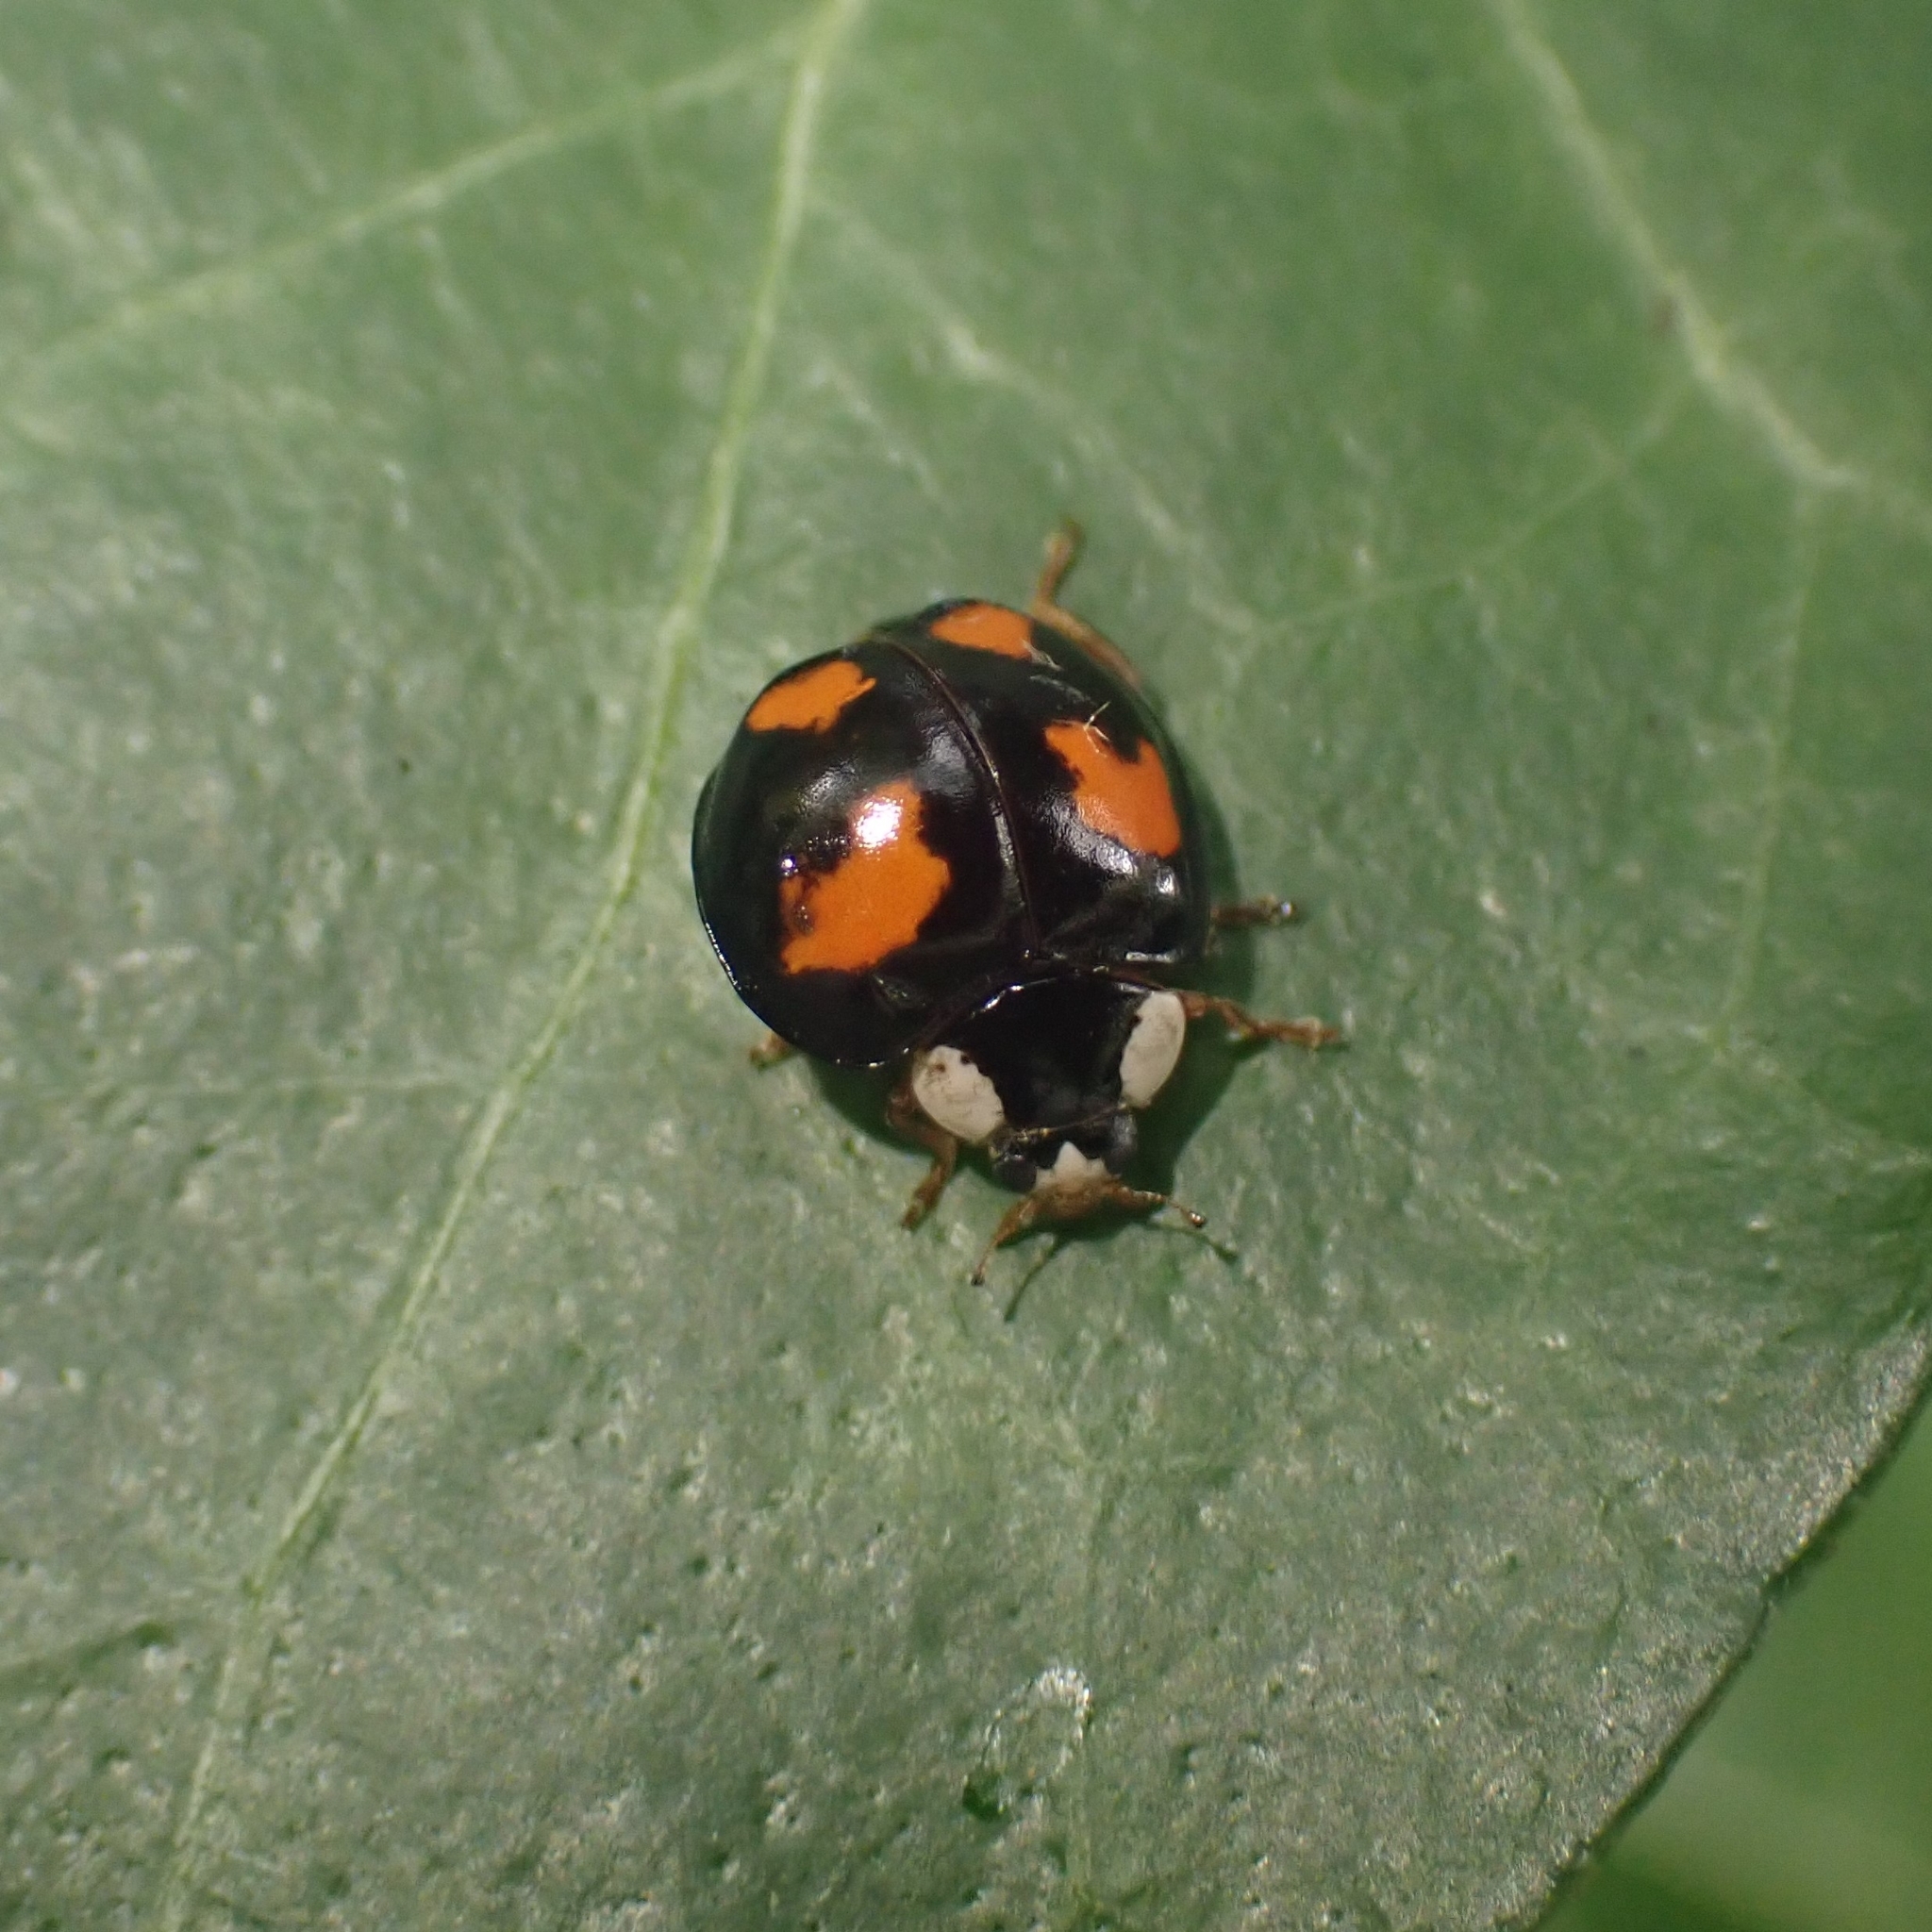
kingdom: Animalia
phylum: Arthropoda
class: Insecta
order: Coleoptera
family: Coccinellidae
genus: Harmonia
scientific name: Harmonia axyridis
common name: Harlequin ladybird
